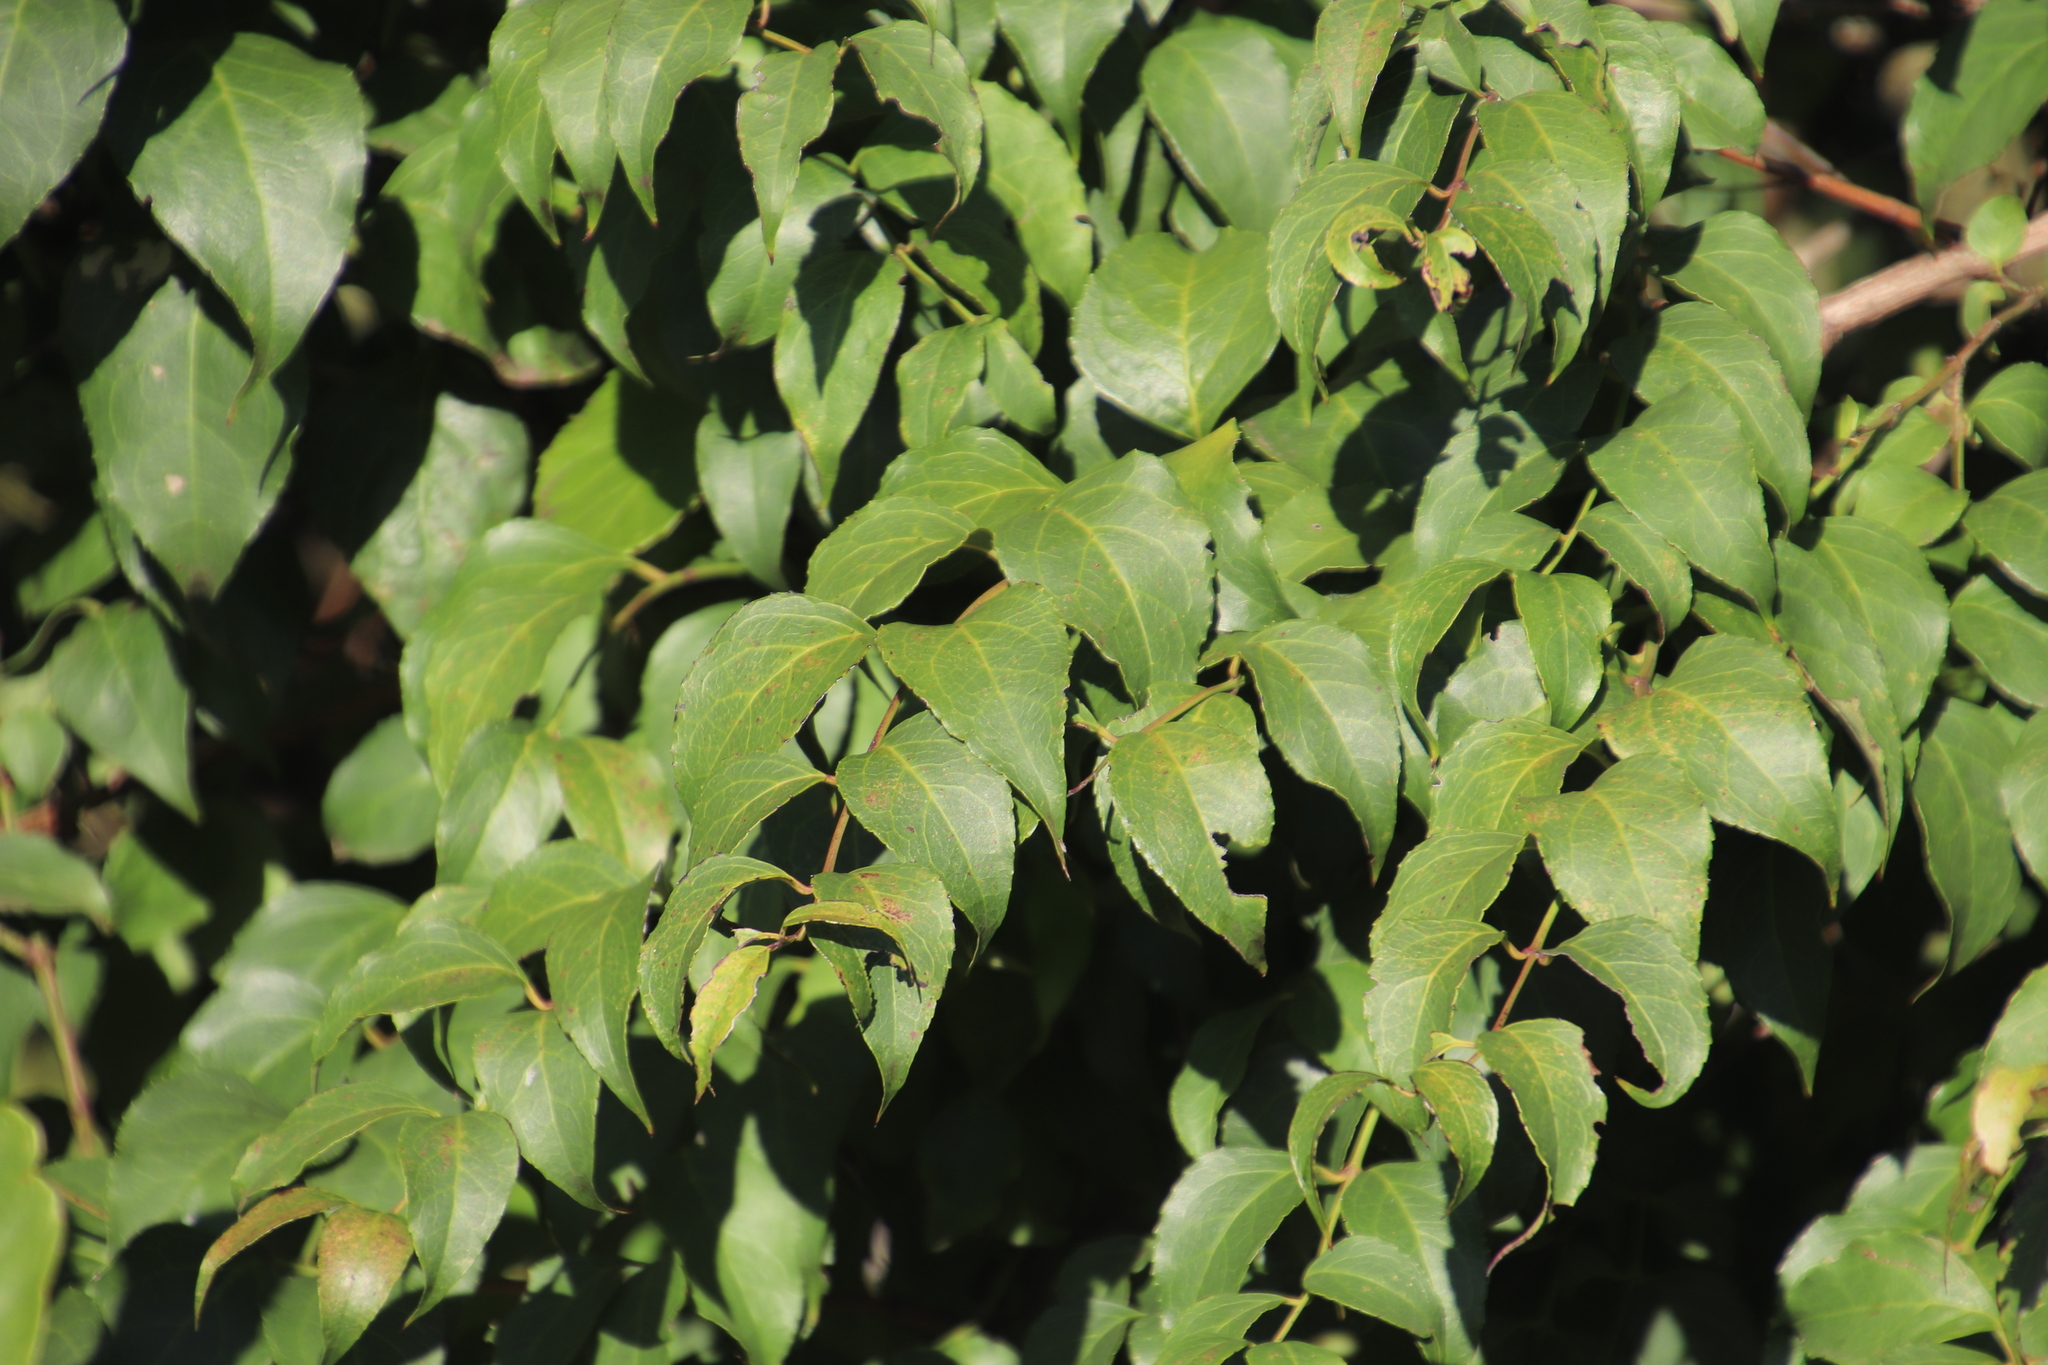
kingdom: Plantae
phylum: Tracheophyta
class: Magnoliopsida
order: Lamiales
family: Stilbaceae
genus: Halleria
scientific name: Halleria lucida
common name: Tree fuschia
